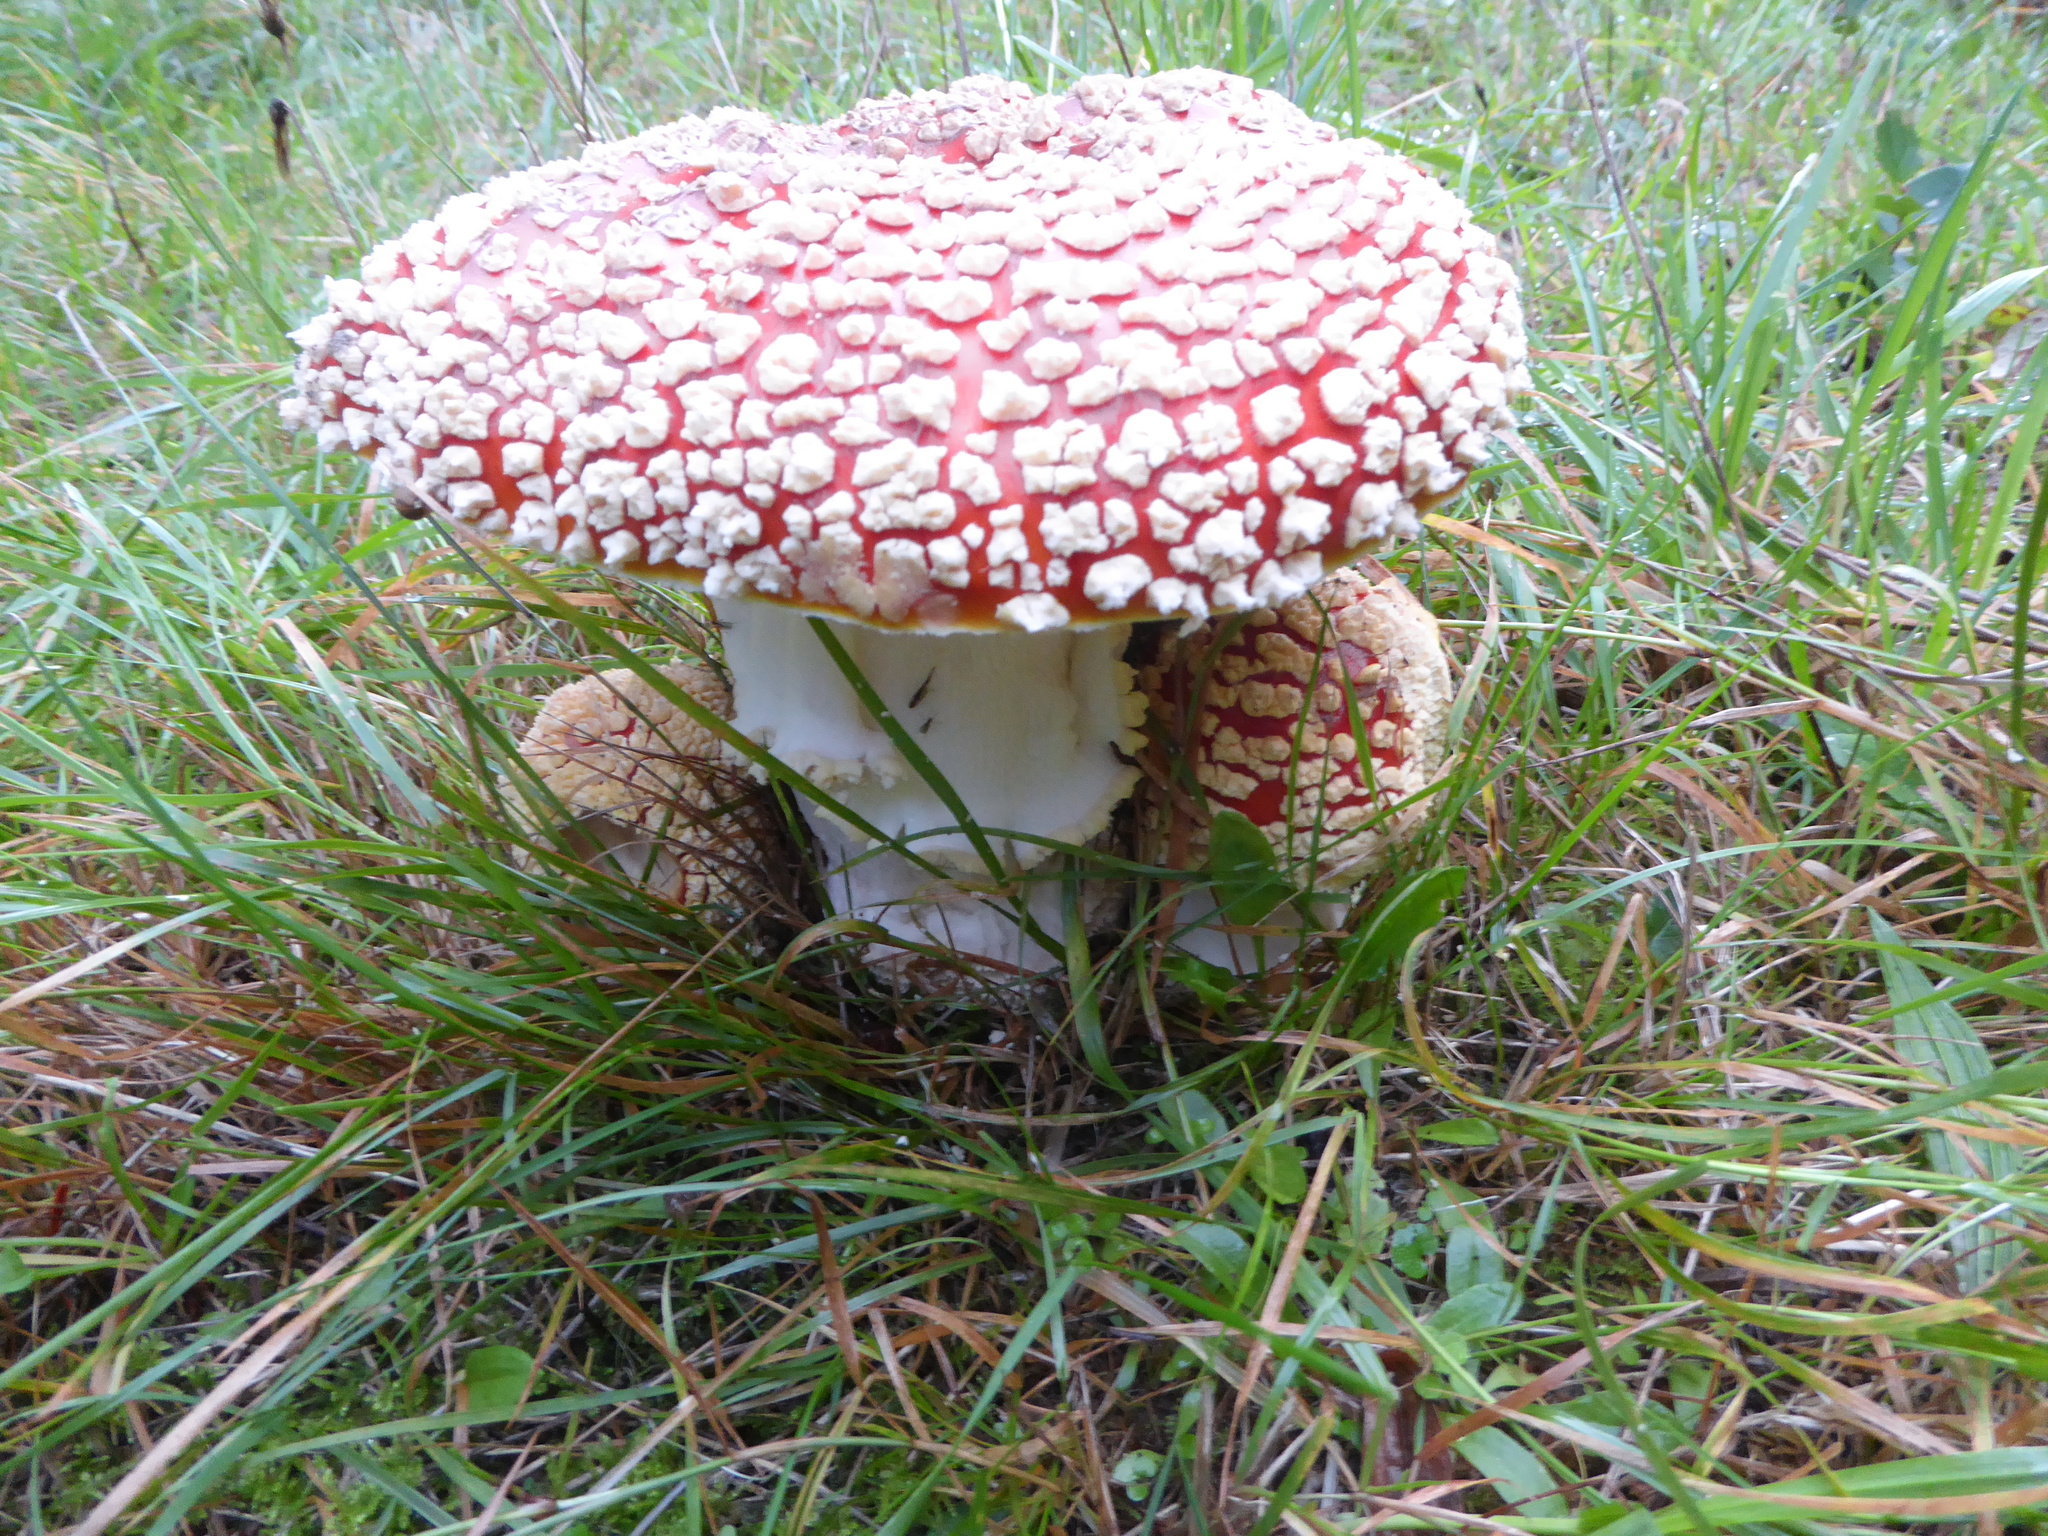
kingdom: Fungi
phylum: Basidiomycota
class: Agaricomycetes
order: Agaricales
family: Amanitaceae
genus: Amanita
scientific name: Amanita muscaria
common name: Fly agaric
